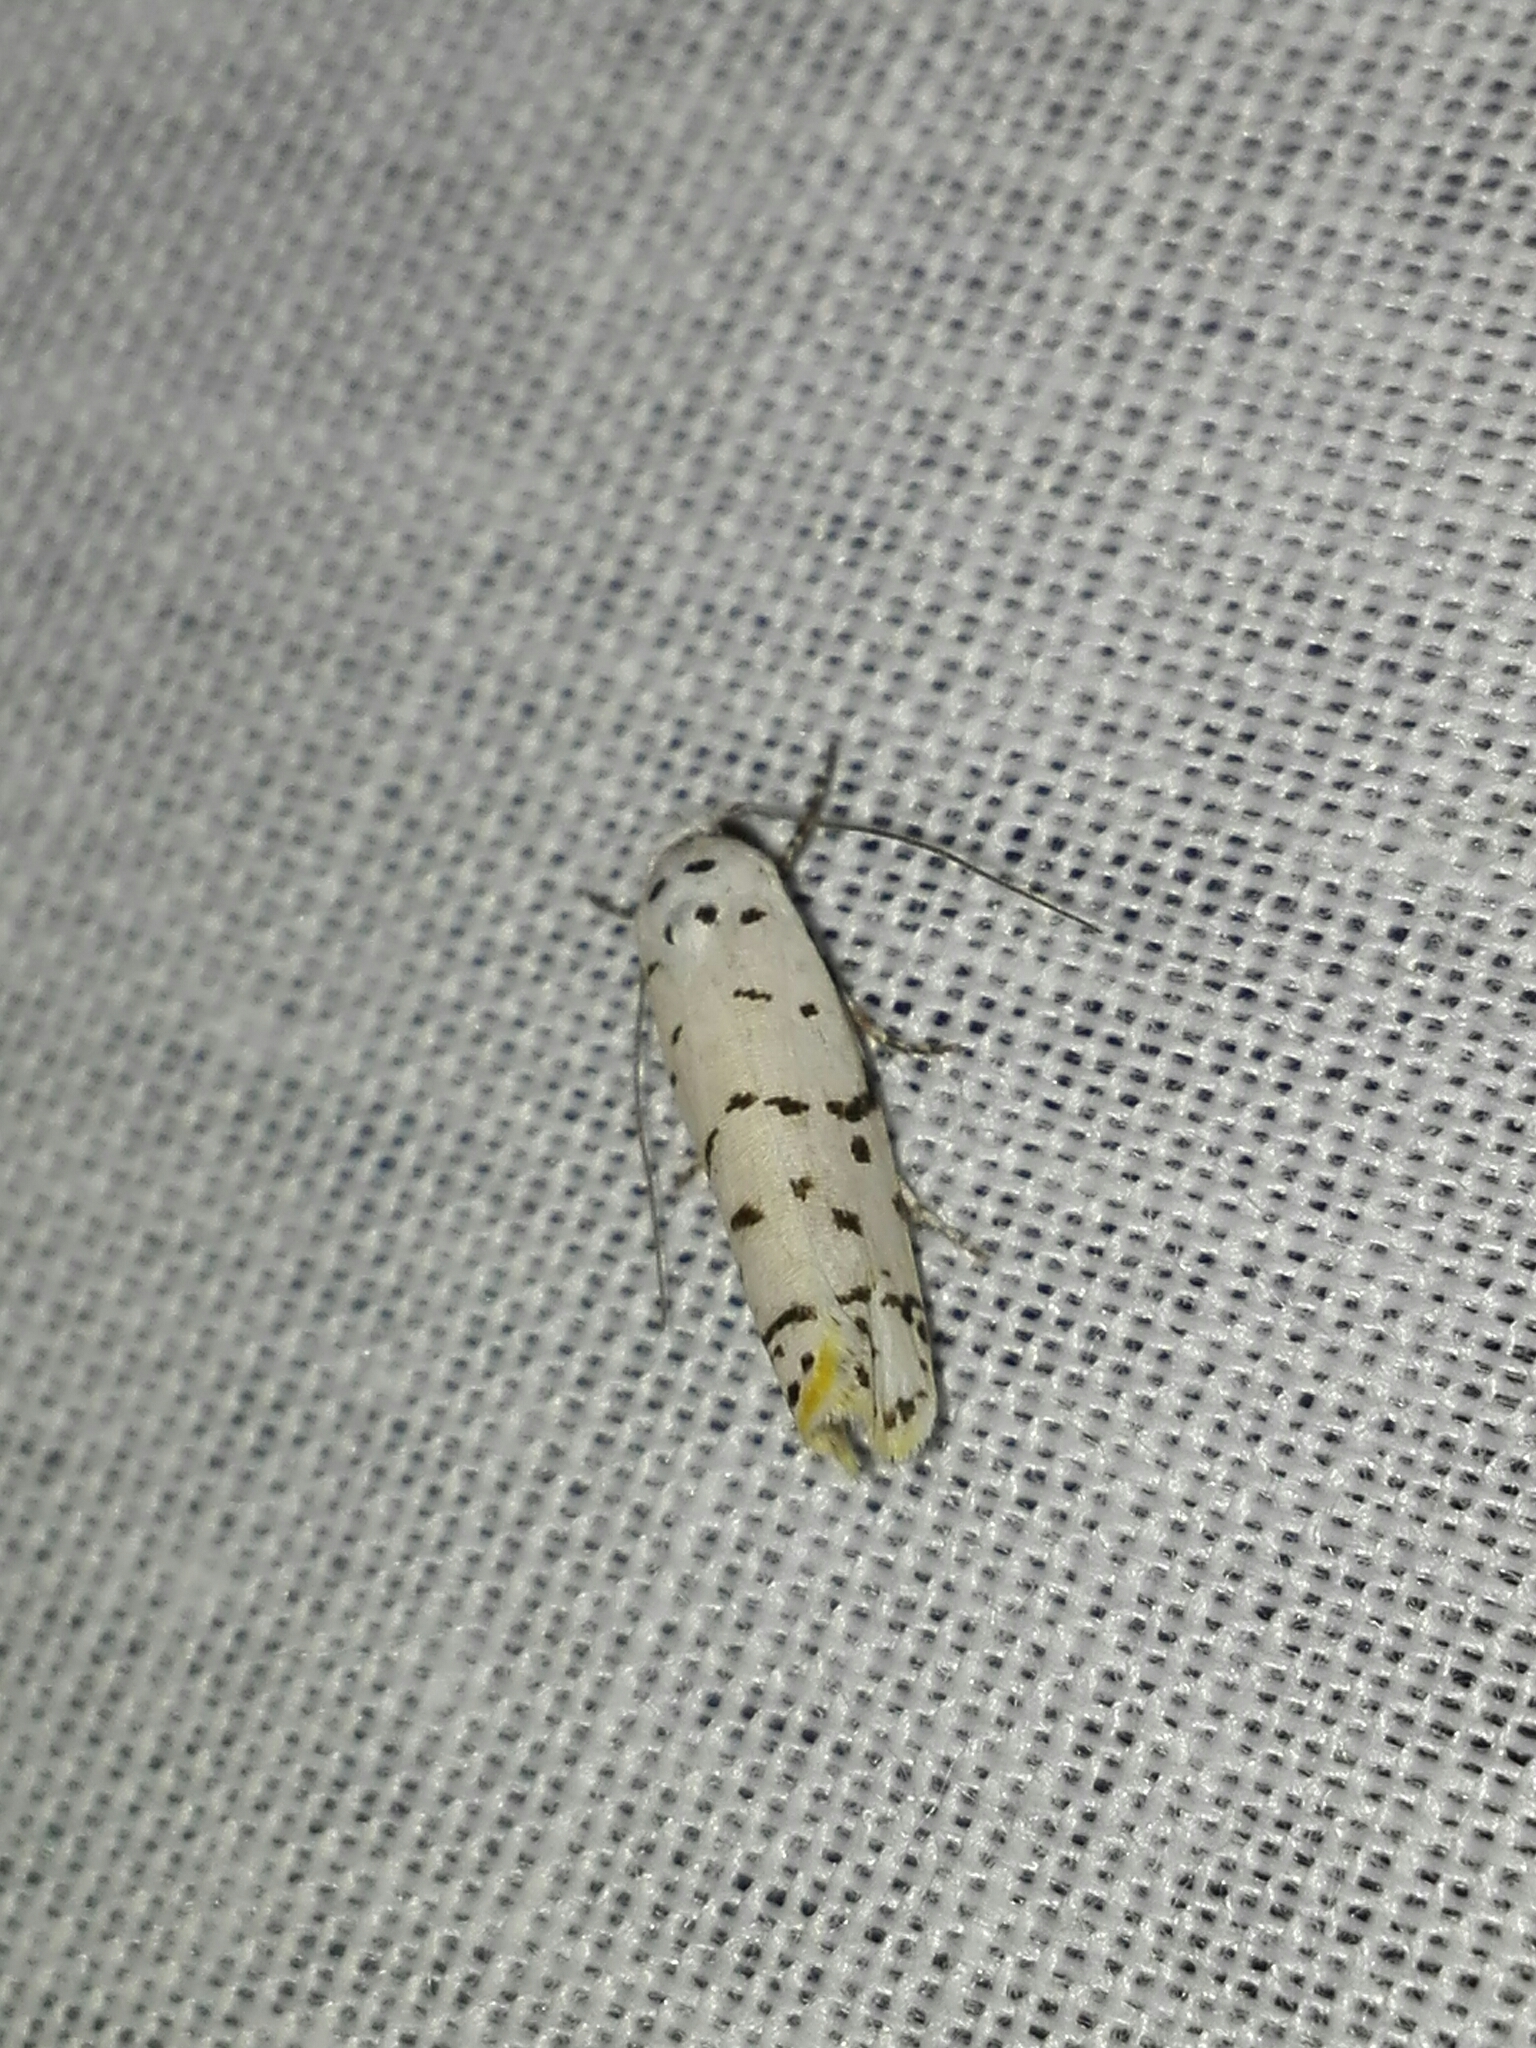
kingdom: Animalia
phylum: Arthropoda
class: Insecta
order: Lepidoptera
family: Ethmiidae
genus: Ethmia
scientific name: Ethmia delliella
